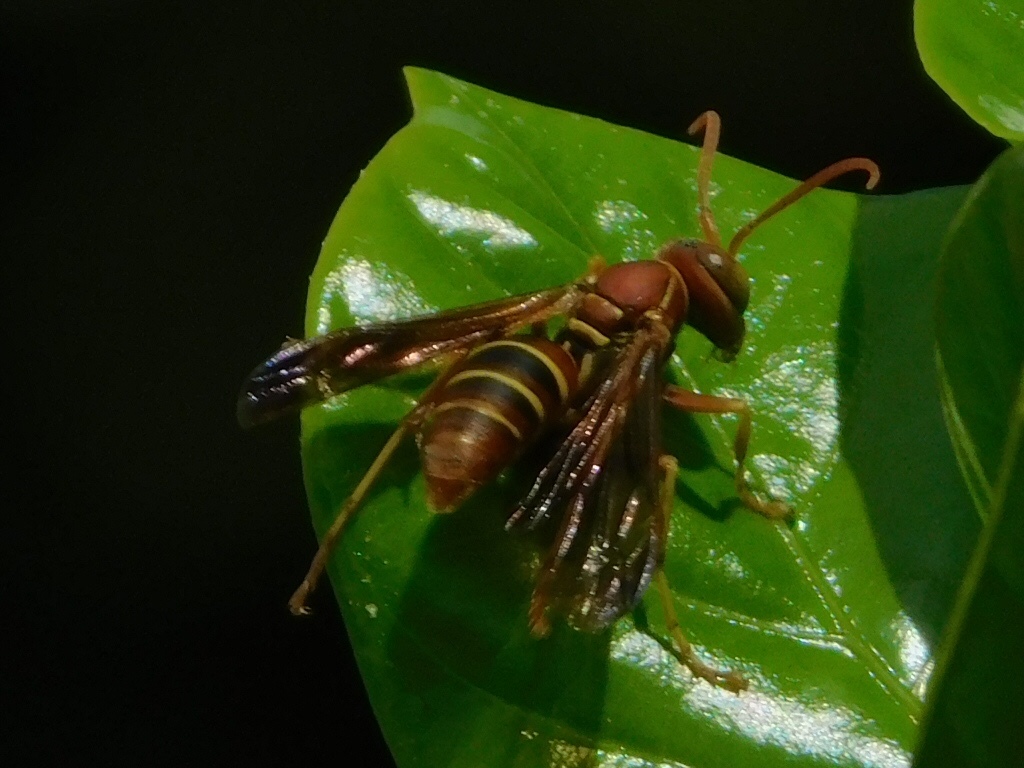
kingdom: Animalia
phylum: Arthropoda
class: Insecta
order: Hymenoptera
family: Eumenidae
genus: Polistes
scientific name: Polistes dorsalis
